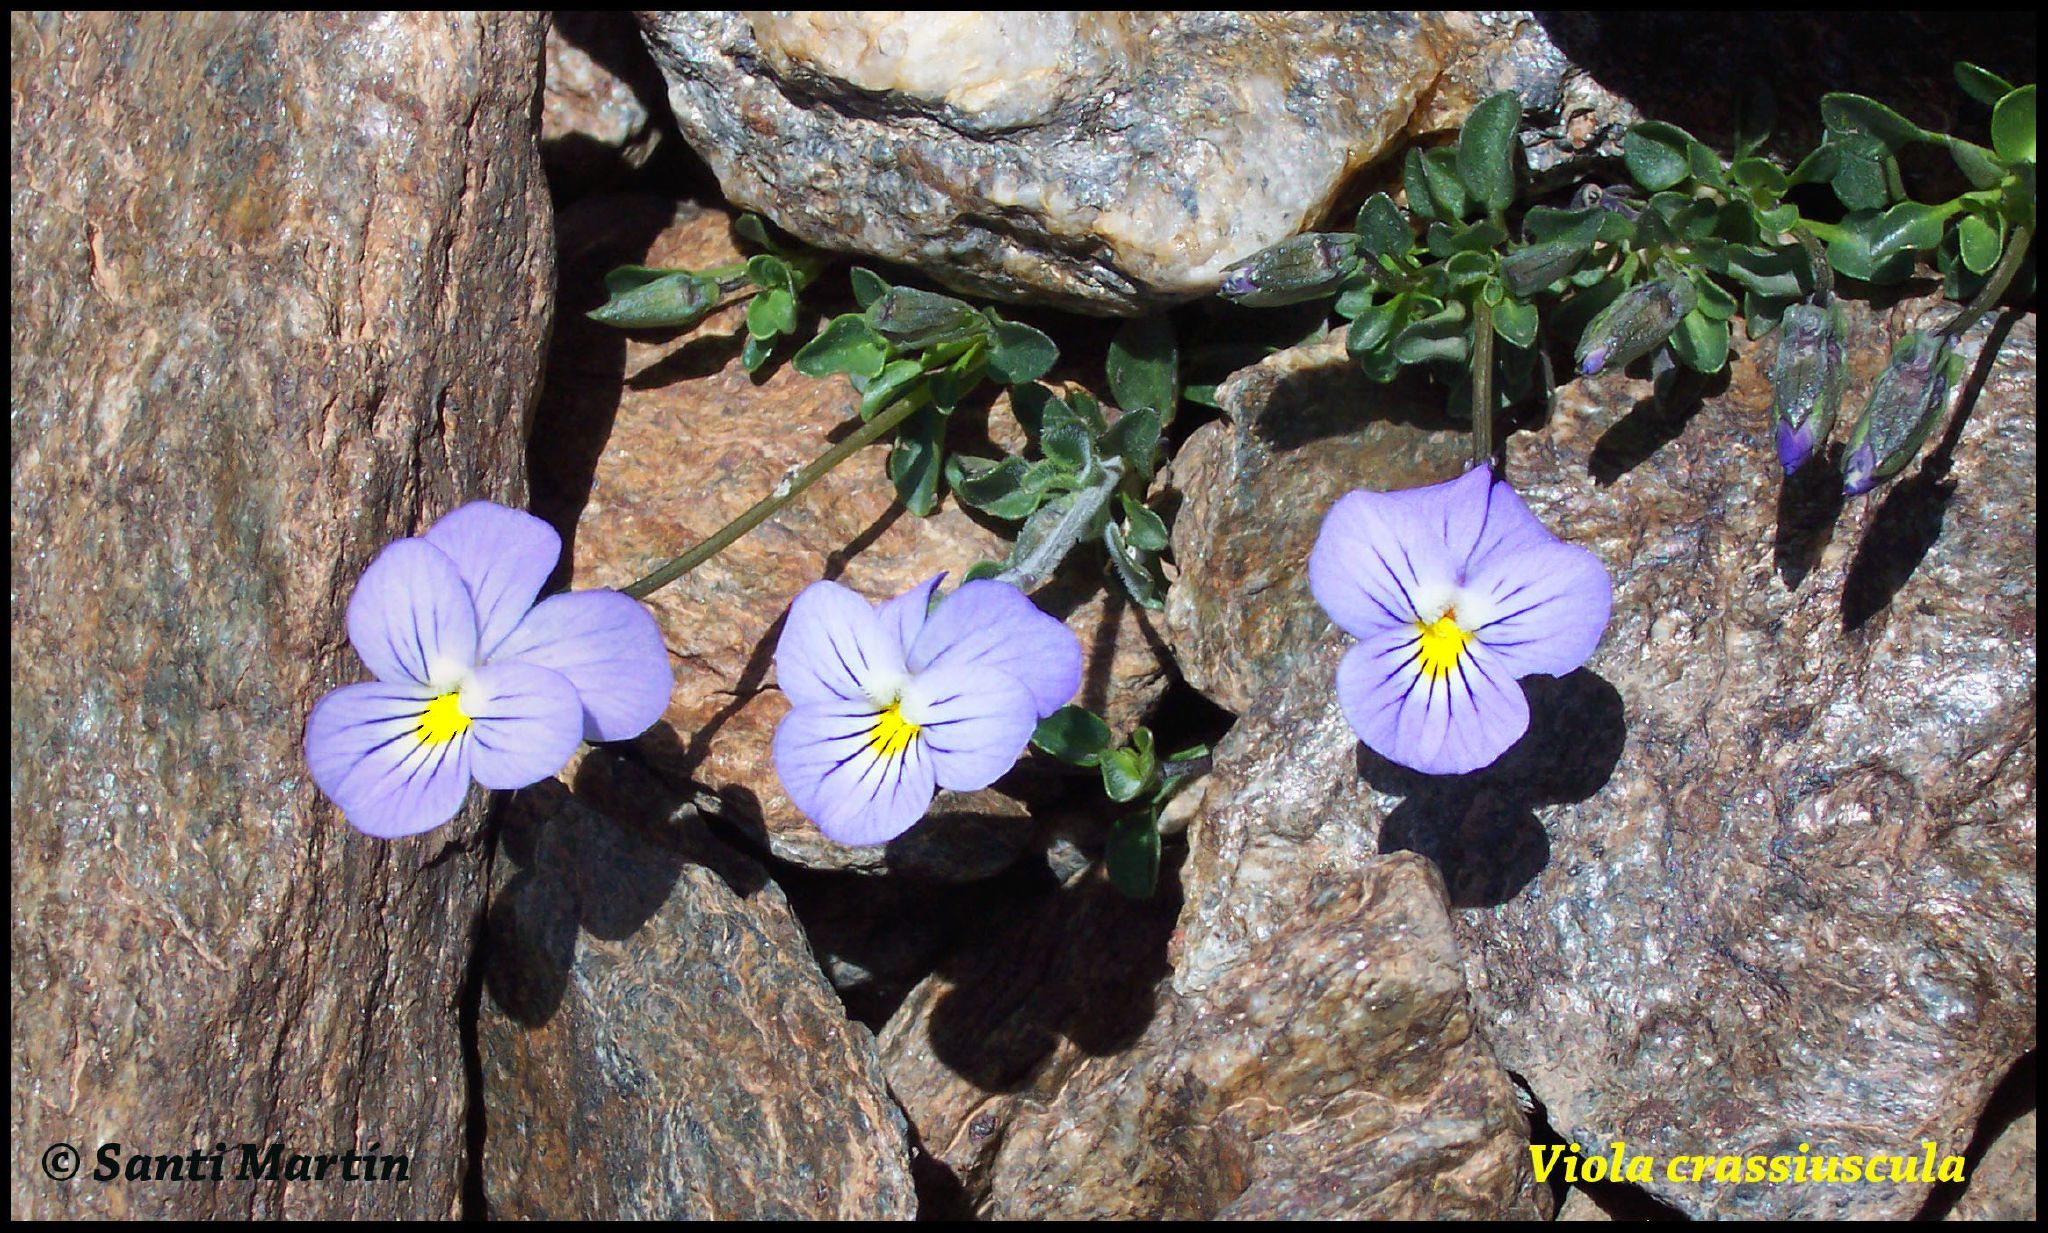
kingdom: Plantae
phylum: Tracheophyta
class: Magnoliopsida
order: Malpighiales
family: Violaceae
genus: Viola
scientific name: Viola crassiuscula
